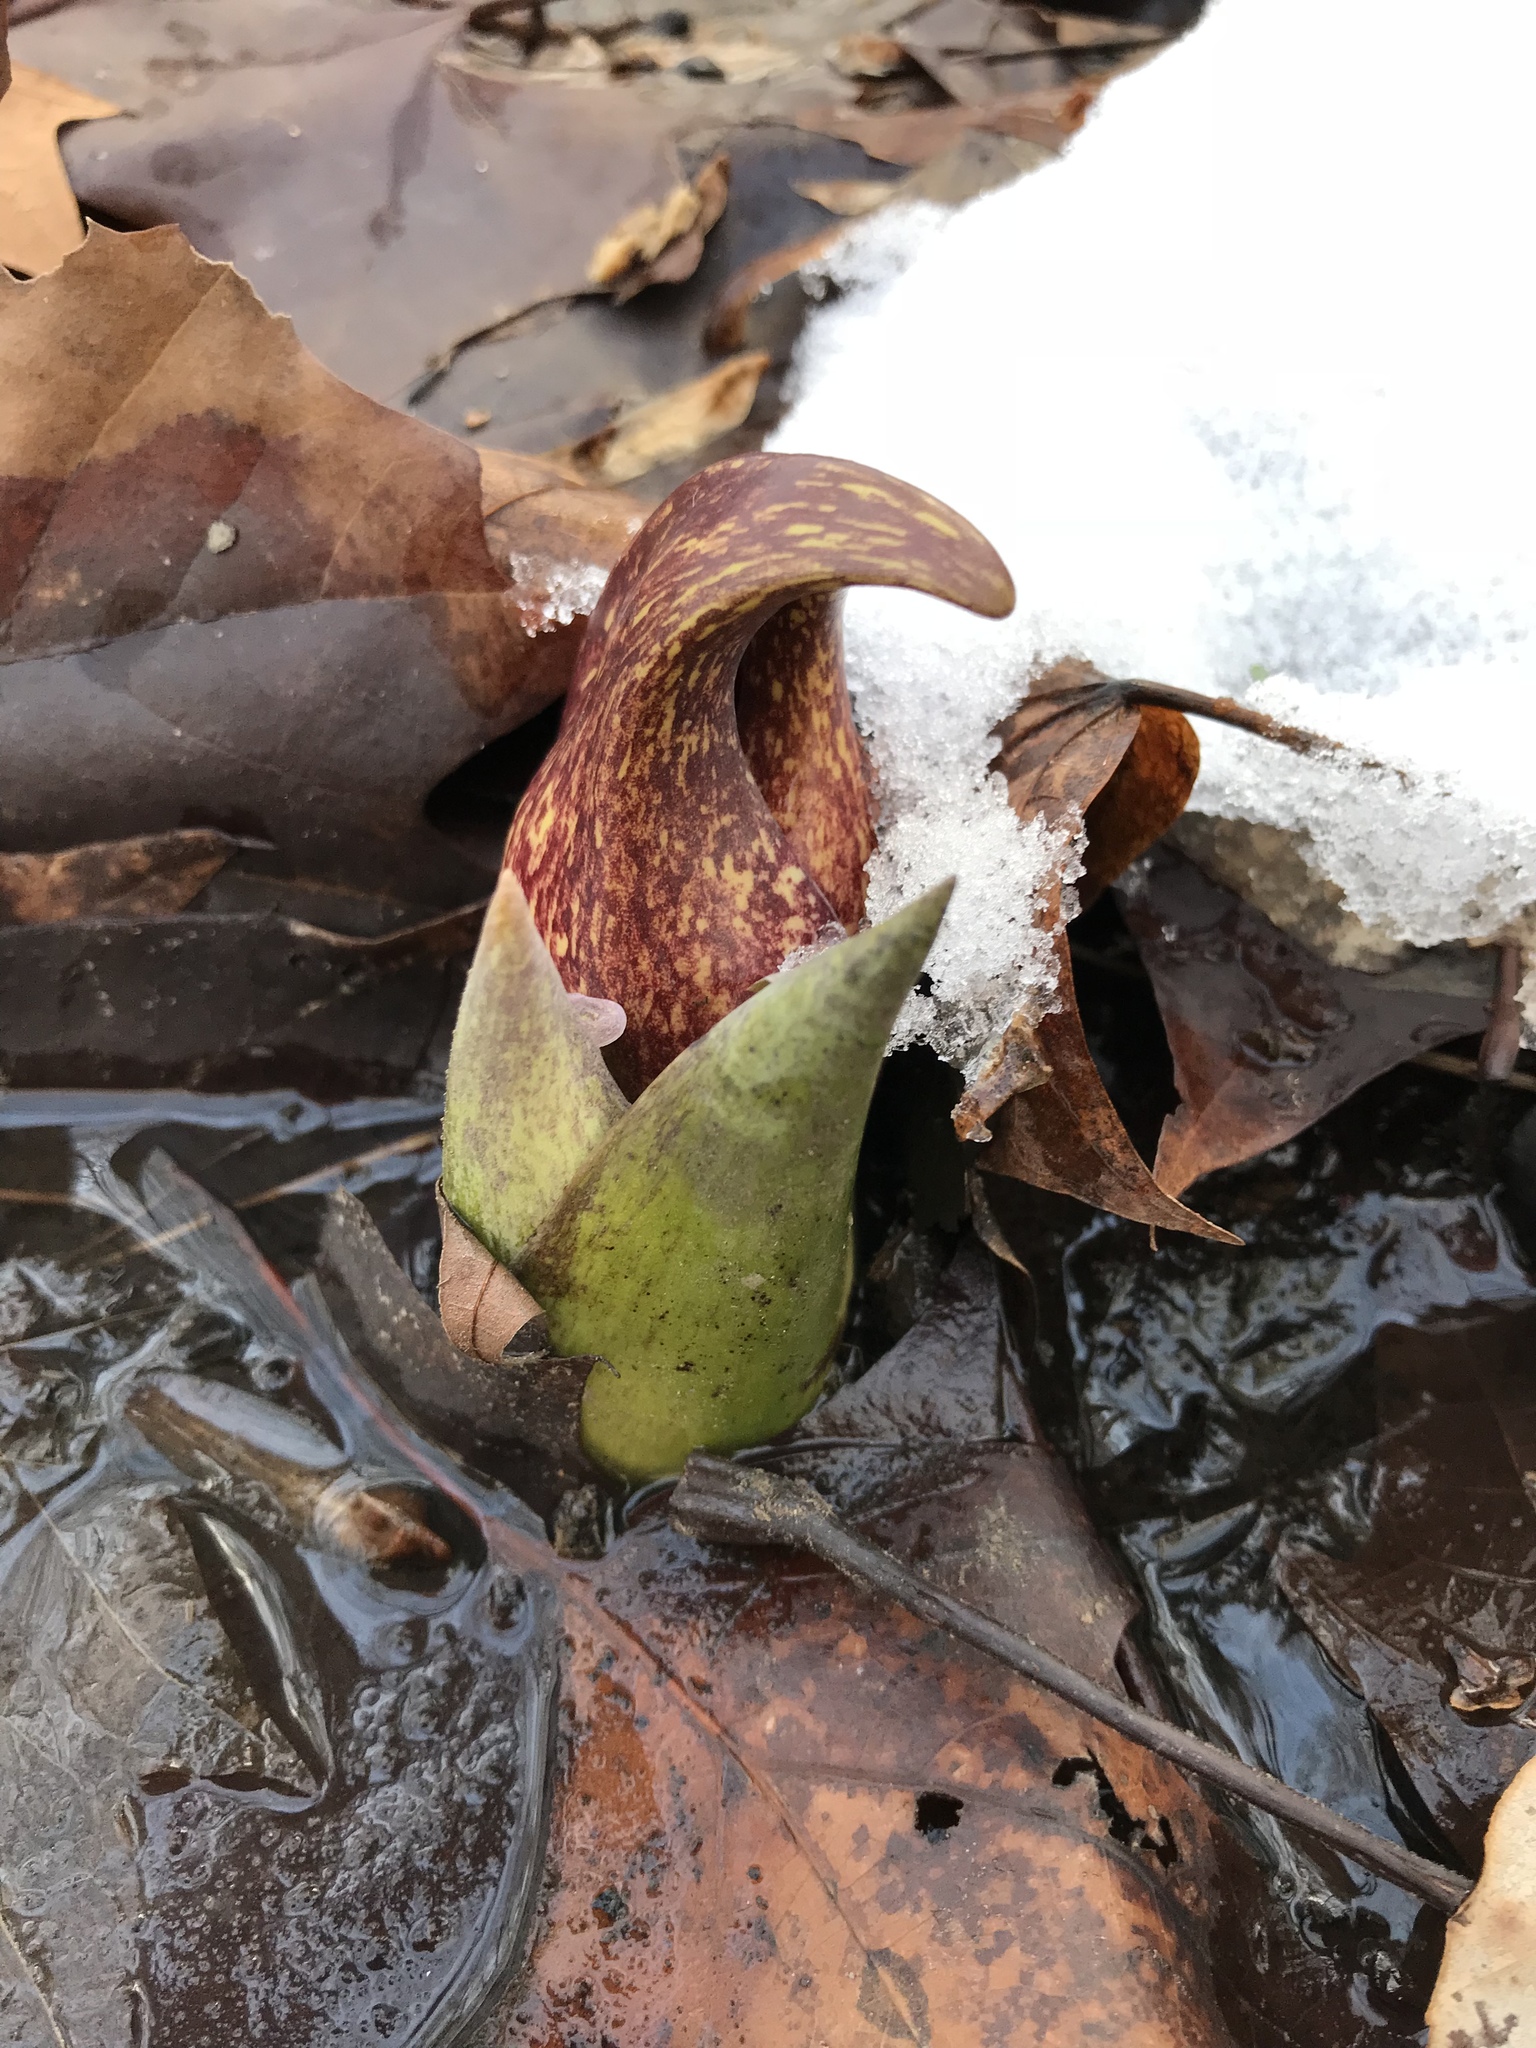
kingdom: Plantae
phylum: Tracheophyta
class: Liliopsida
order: Alismatales
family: Araceae
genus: Symplocarpus
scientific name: Symplocarpus foetidus
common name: Eastern skunk cabbage
